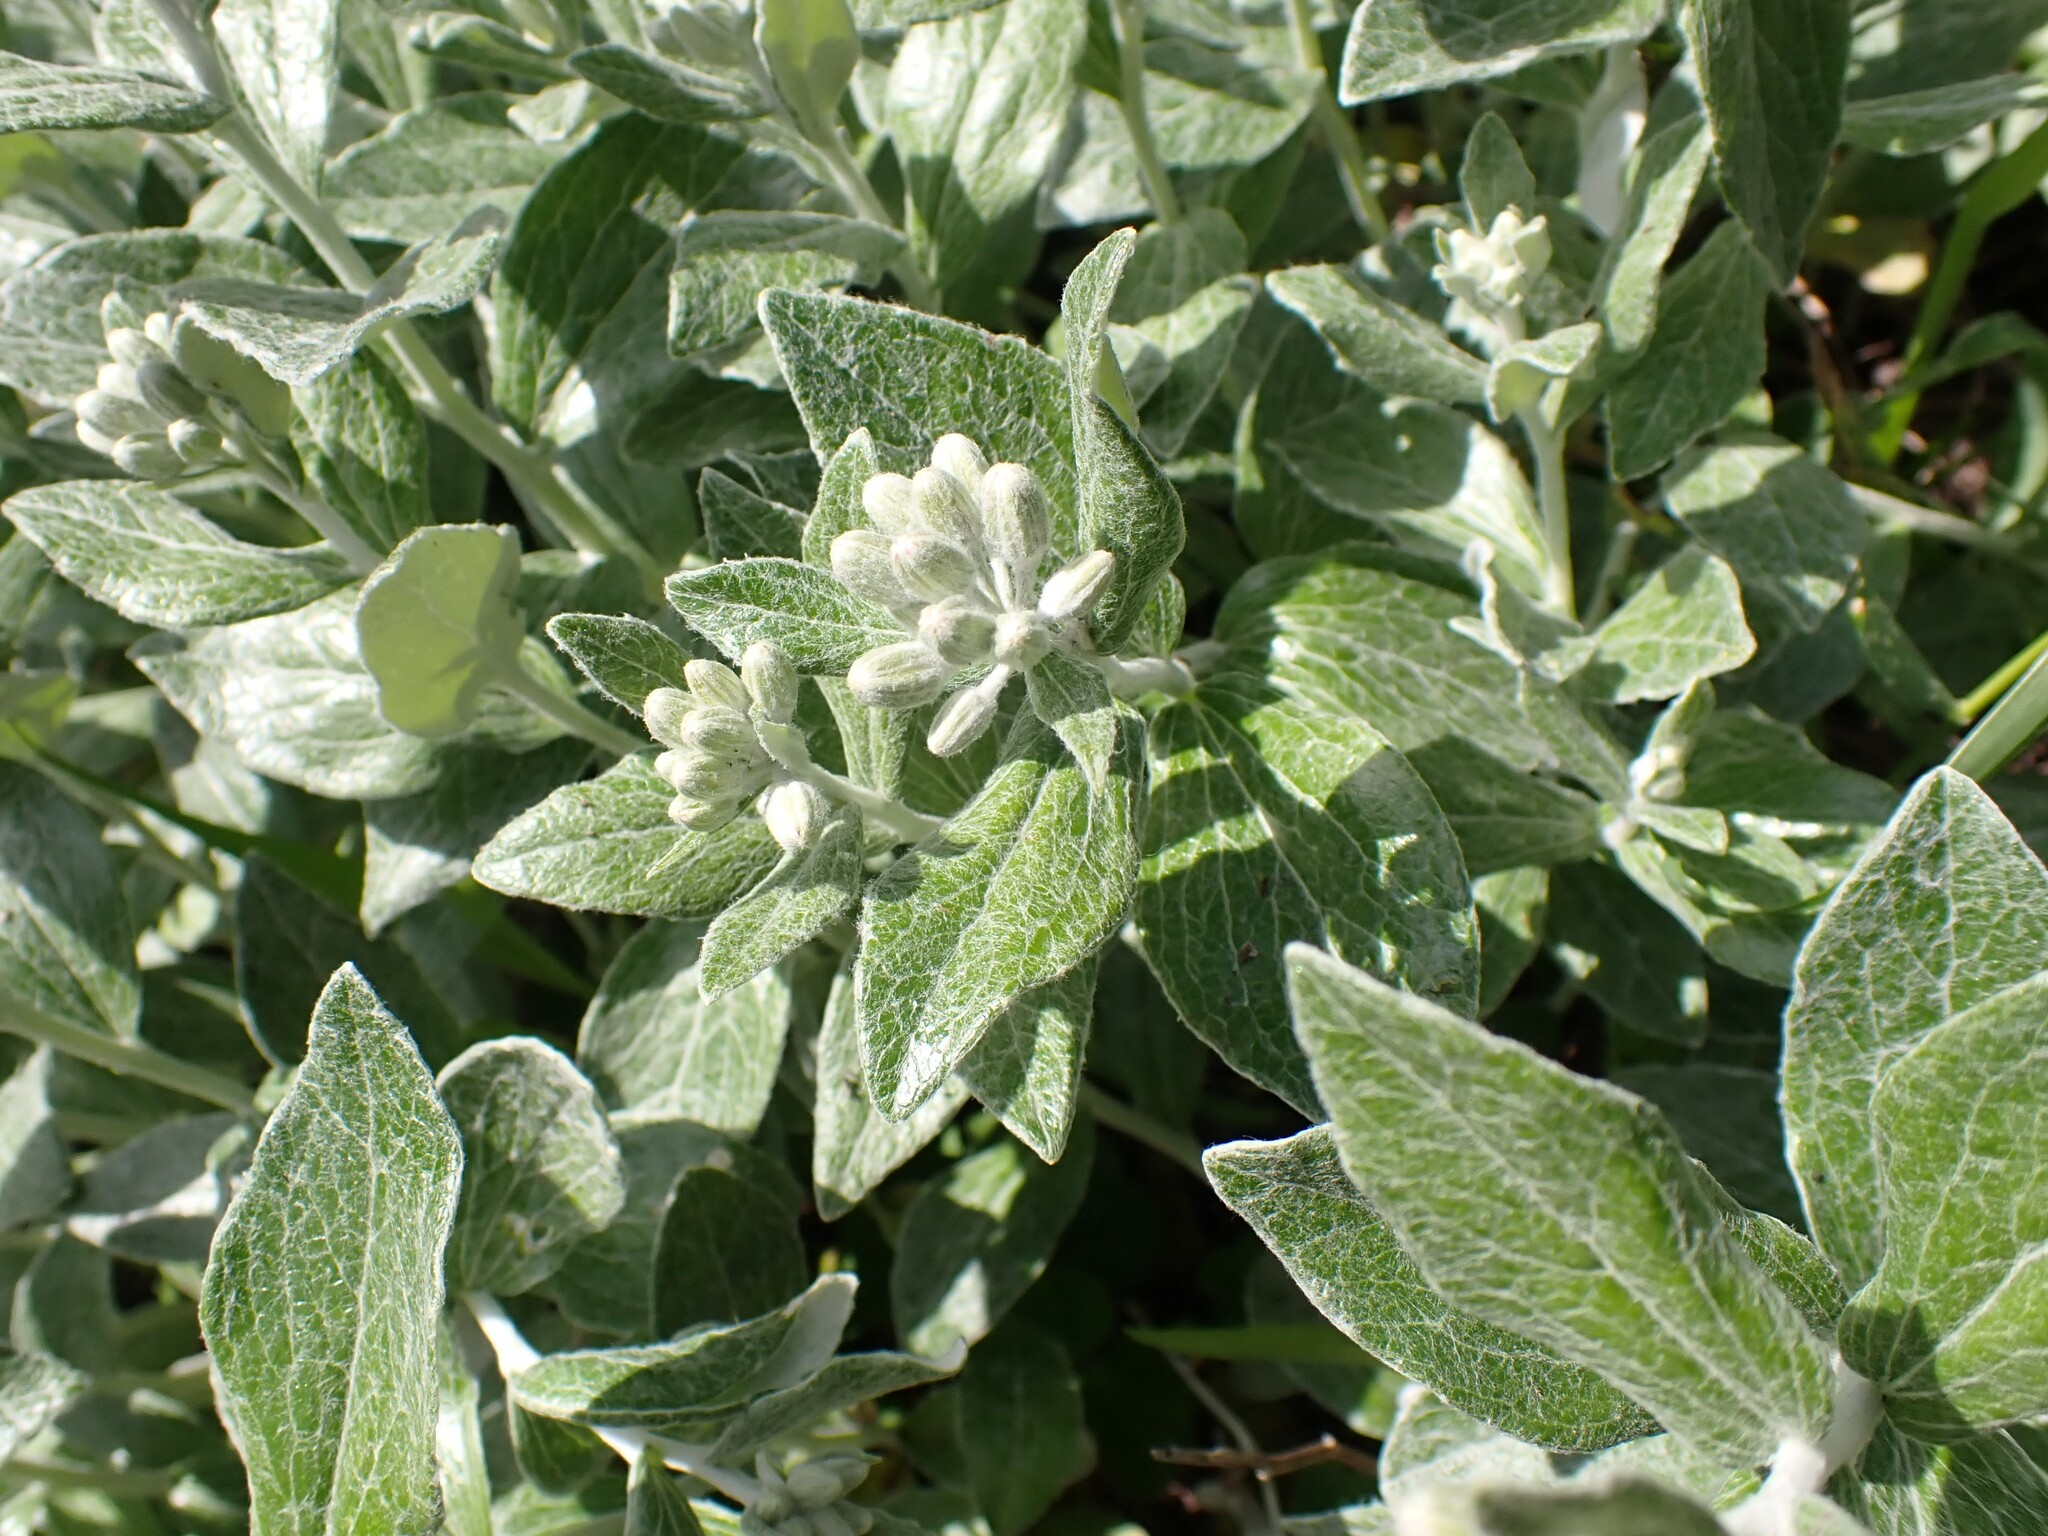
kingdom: Plantae
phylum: Tracheophyta
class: Magnoliopsida
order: Asterales
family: Asteraceae
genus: Luina
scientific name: Luina hypoleuca
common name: Little-leaved luina
